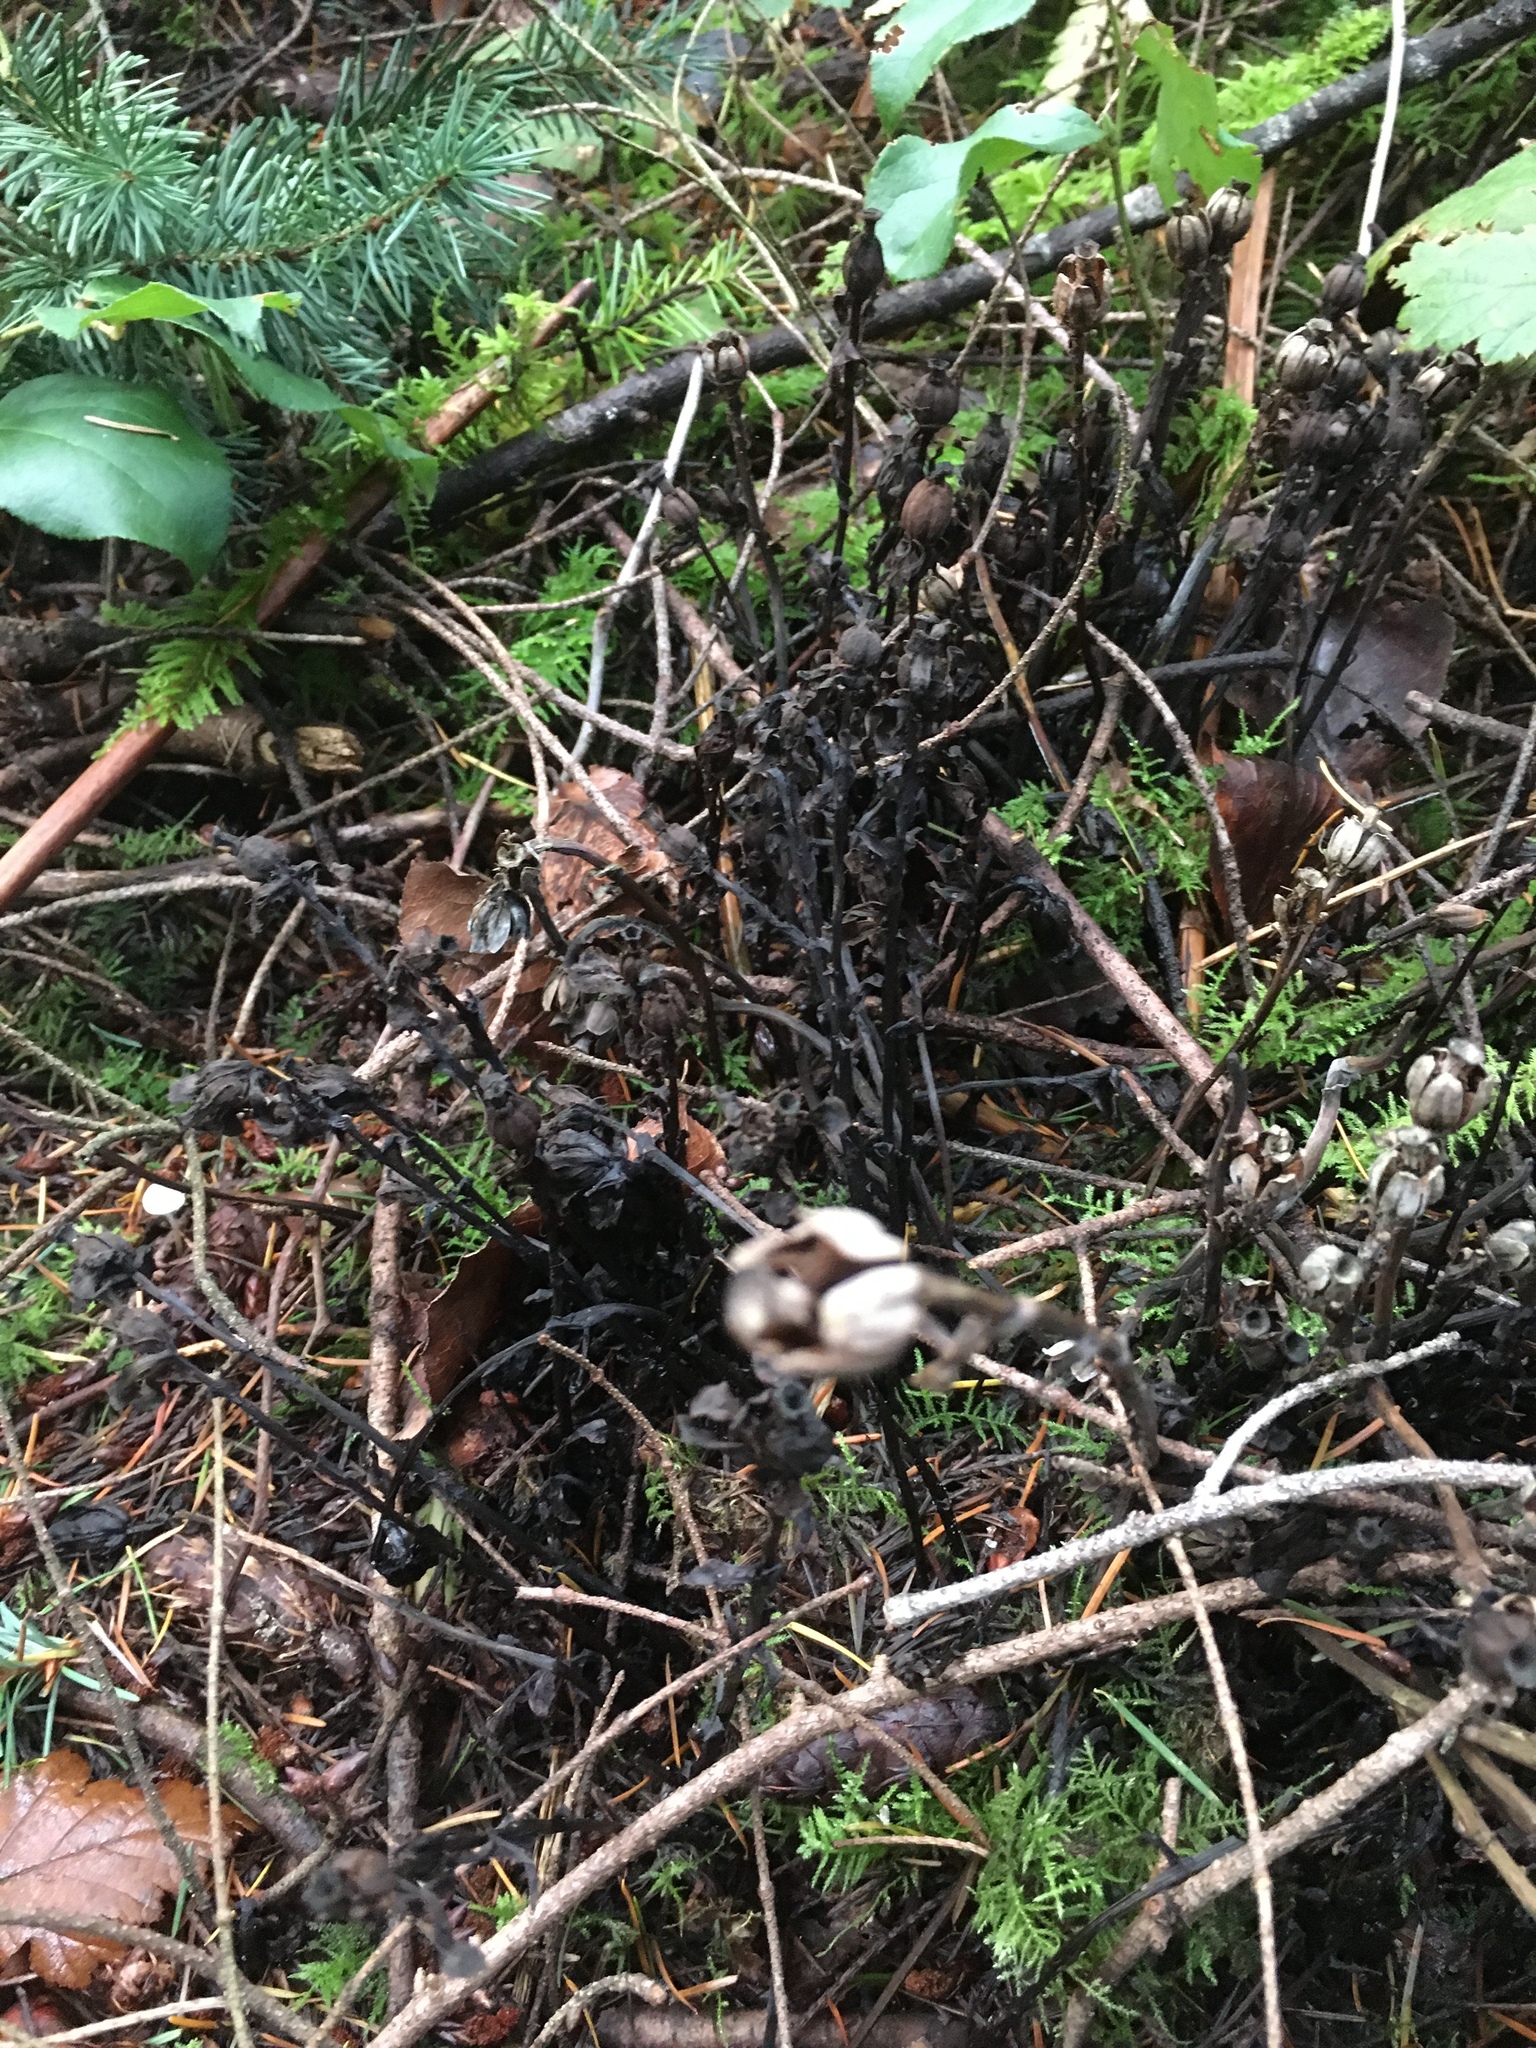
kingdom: Plantae
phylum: Tracheophyta
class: Magnoliopsida
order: Ericales
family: Ericaceae
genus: Monotropa
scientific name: Monotropa uniflora
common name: Convulsion root
